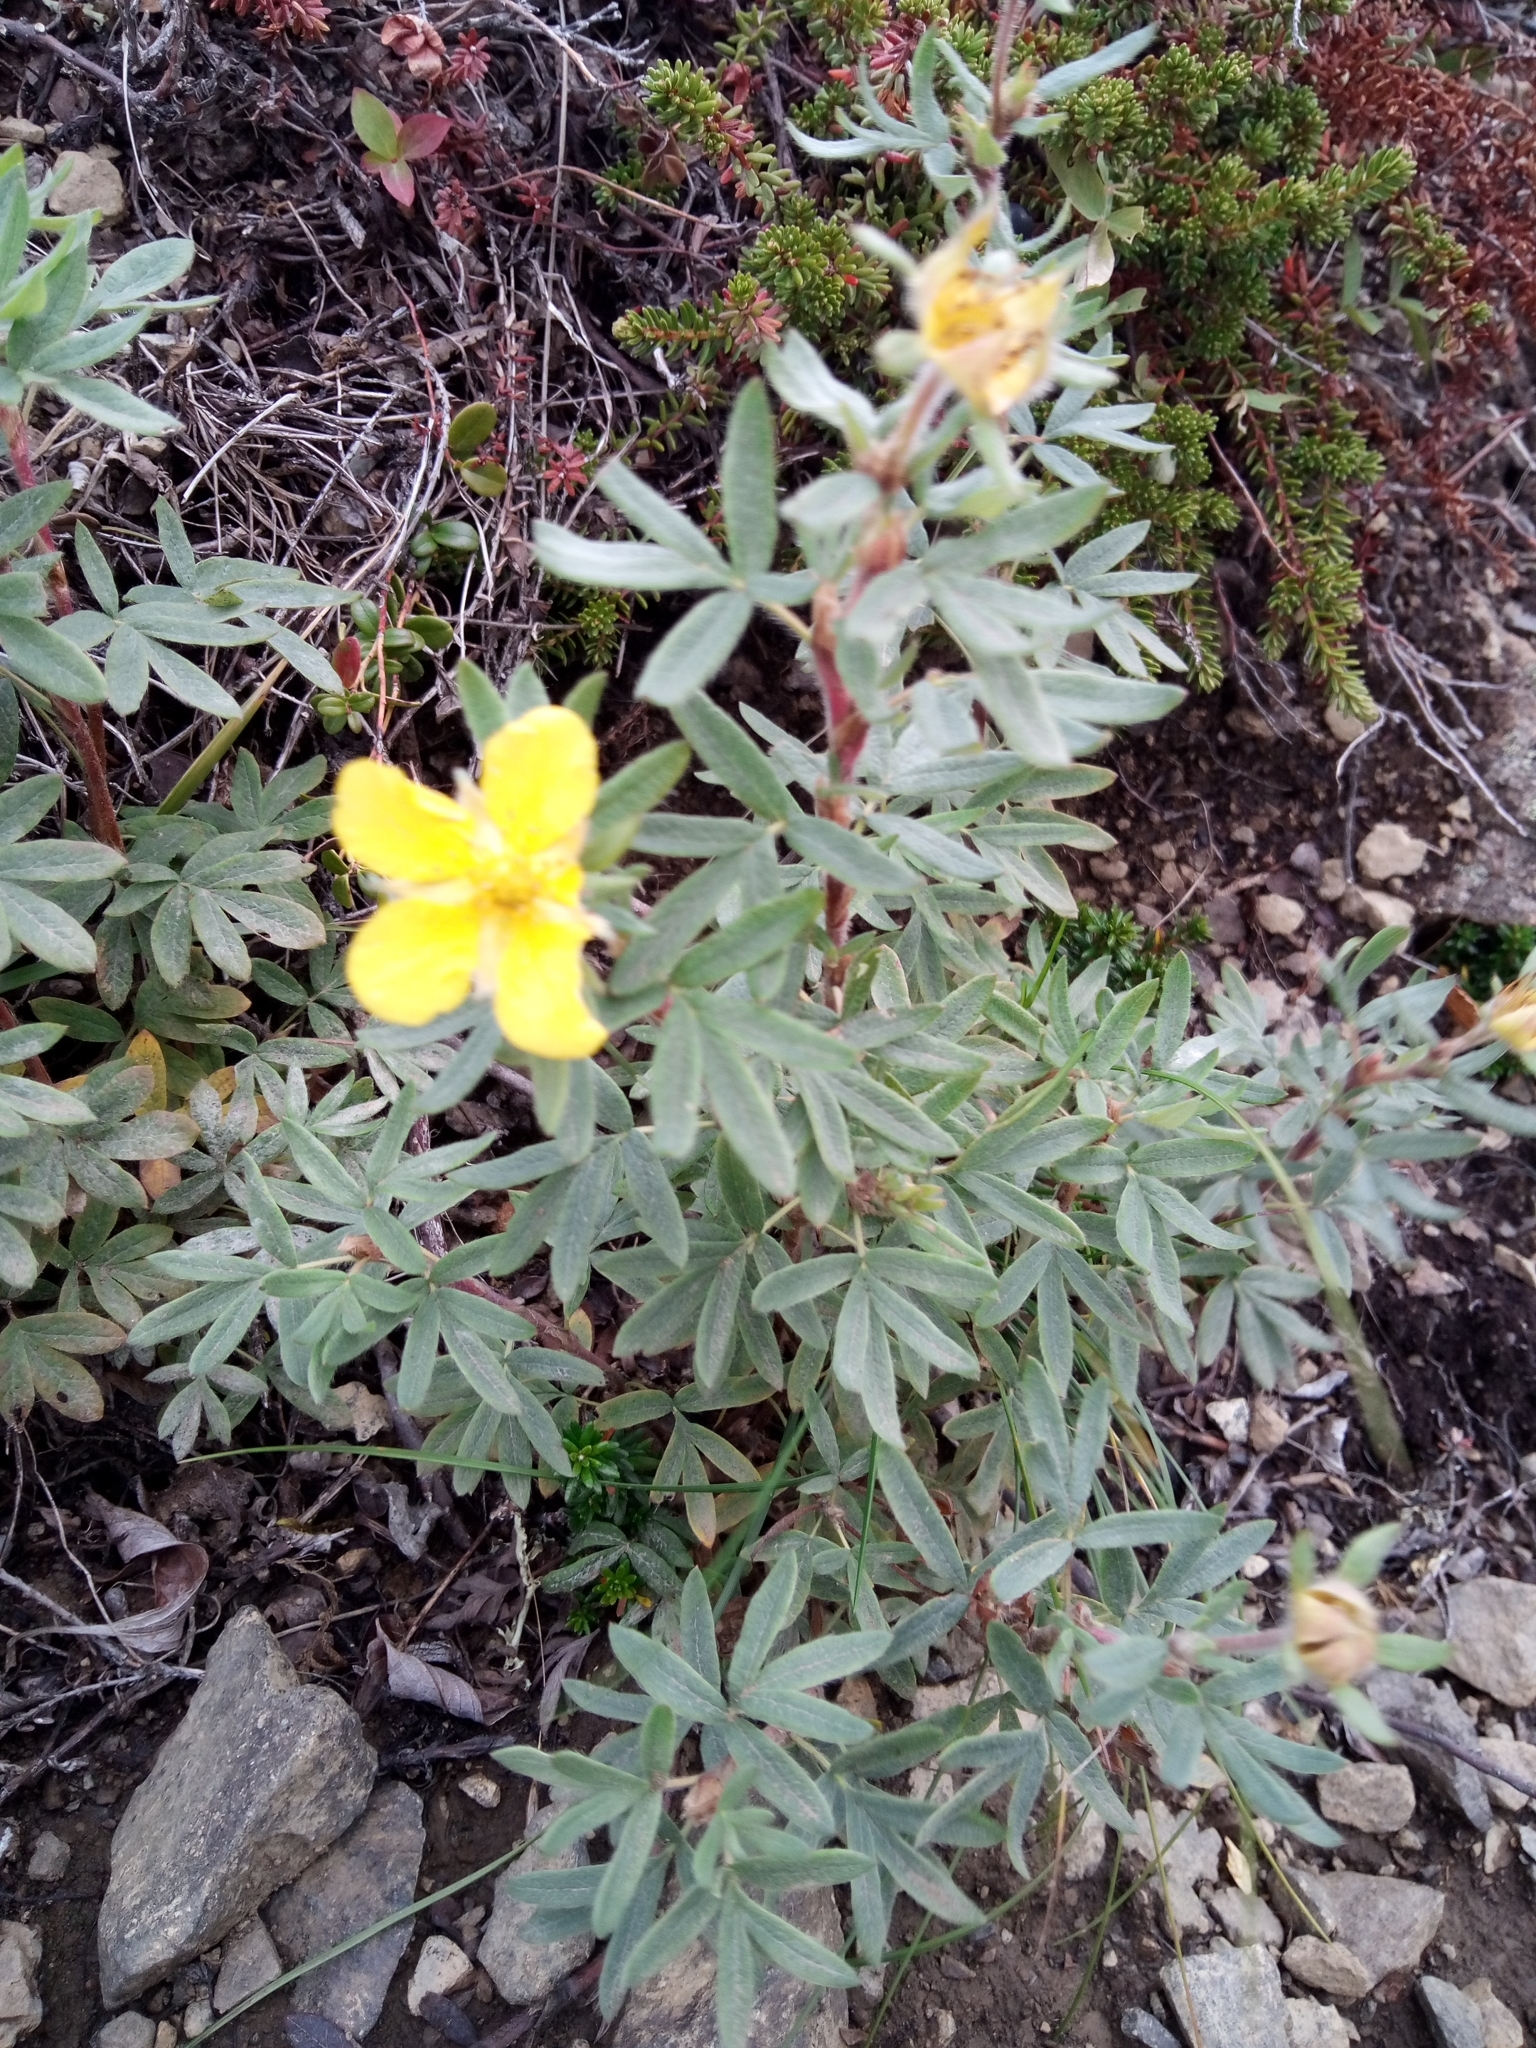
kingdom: Plantae
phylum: Tracheophyta
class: Magnoliopsida
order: Rosales
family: Rosaceae
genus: Dasiphora
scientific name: Dasiphora fruticosa
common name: Shrubby cinquefoil
